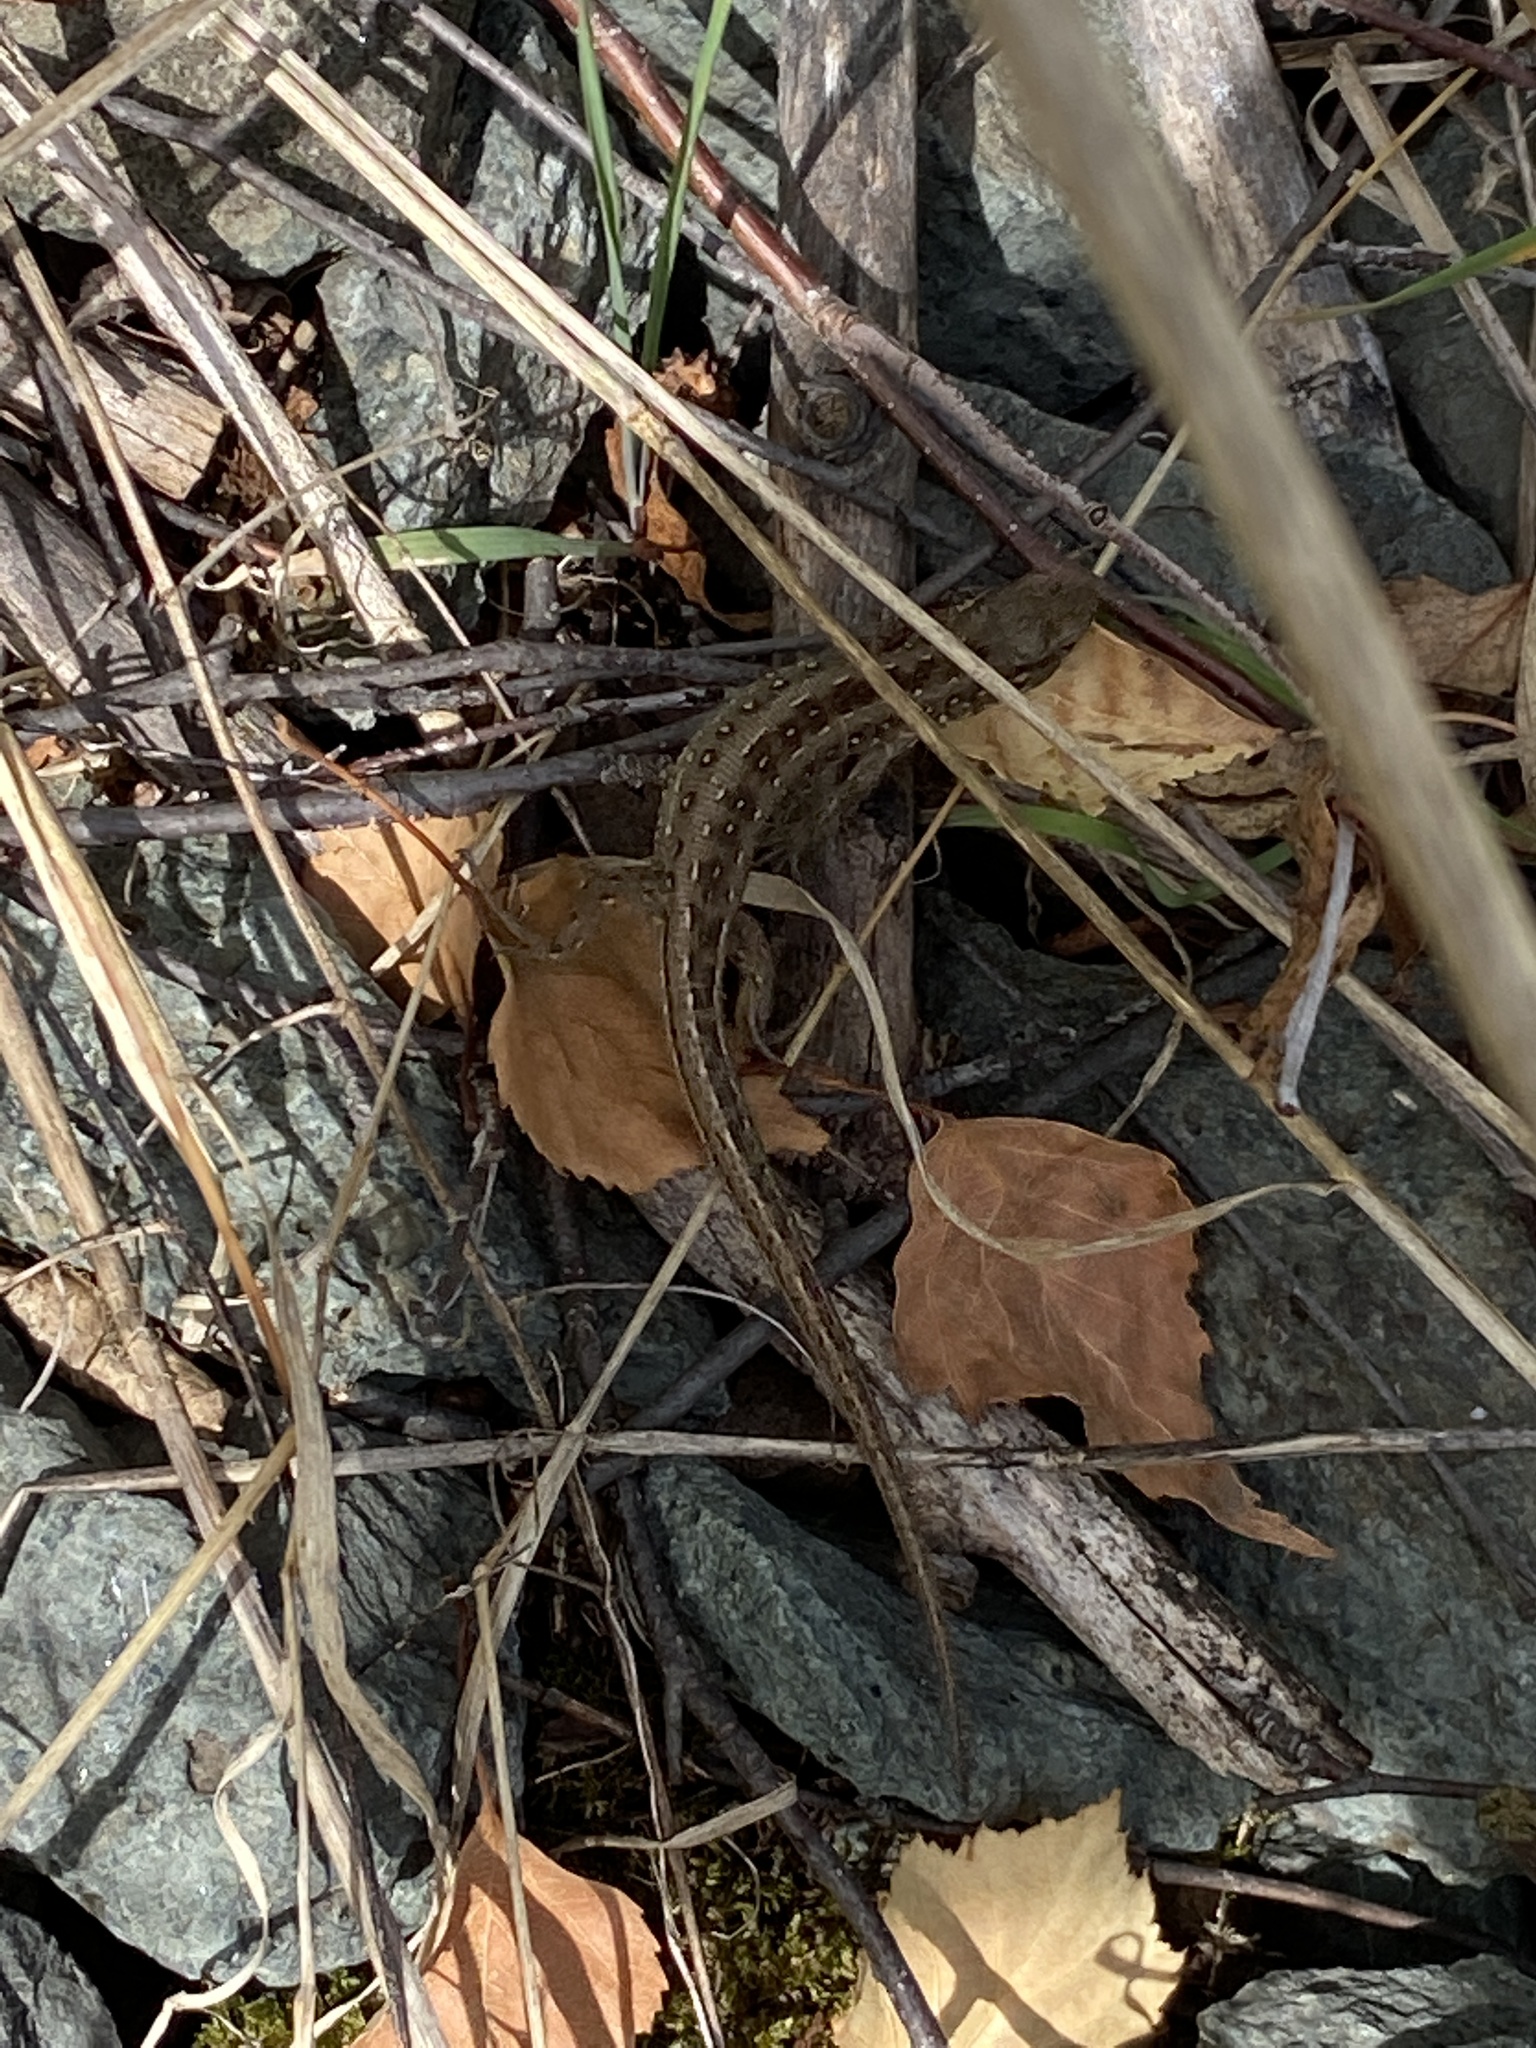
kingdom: Animalia
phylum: Chordata
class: Squamata
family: Lacertidae
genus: Lacerta
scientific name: Lacerta agilis
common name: Sand lizard
